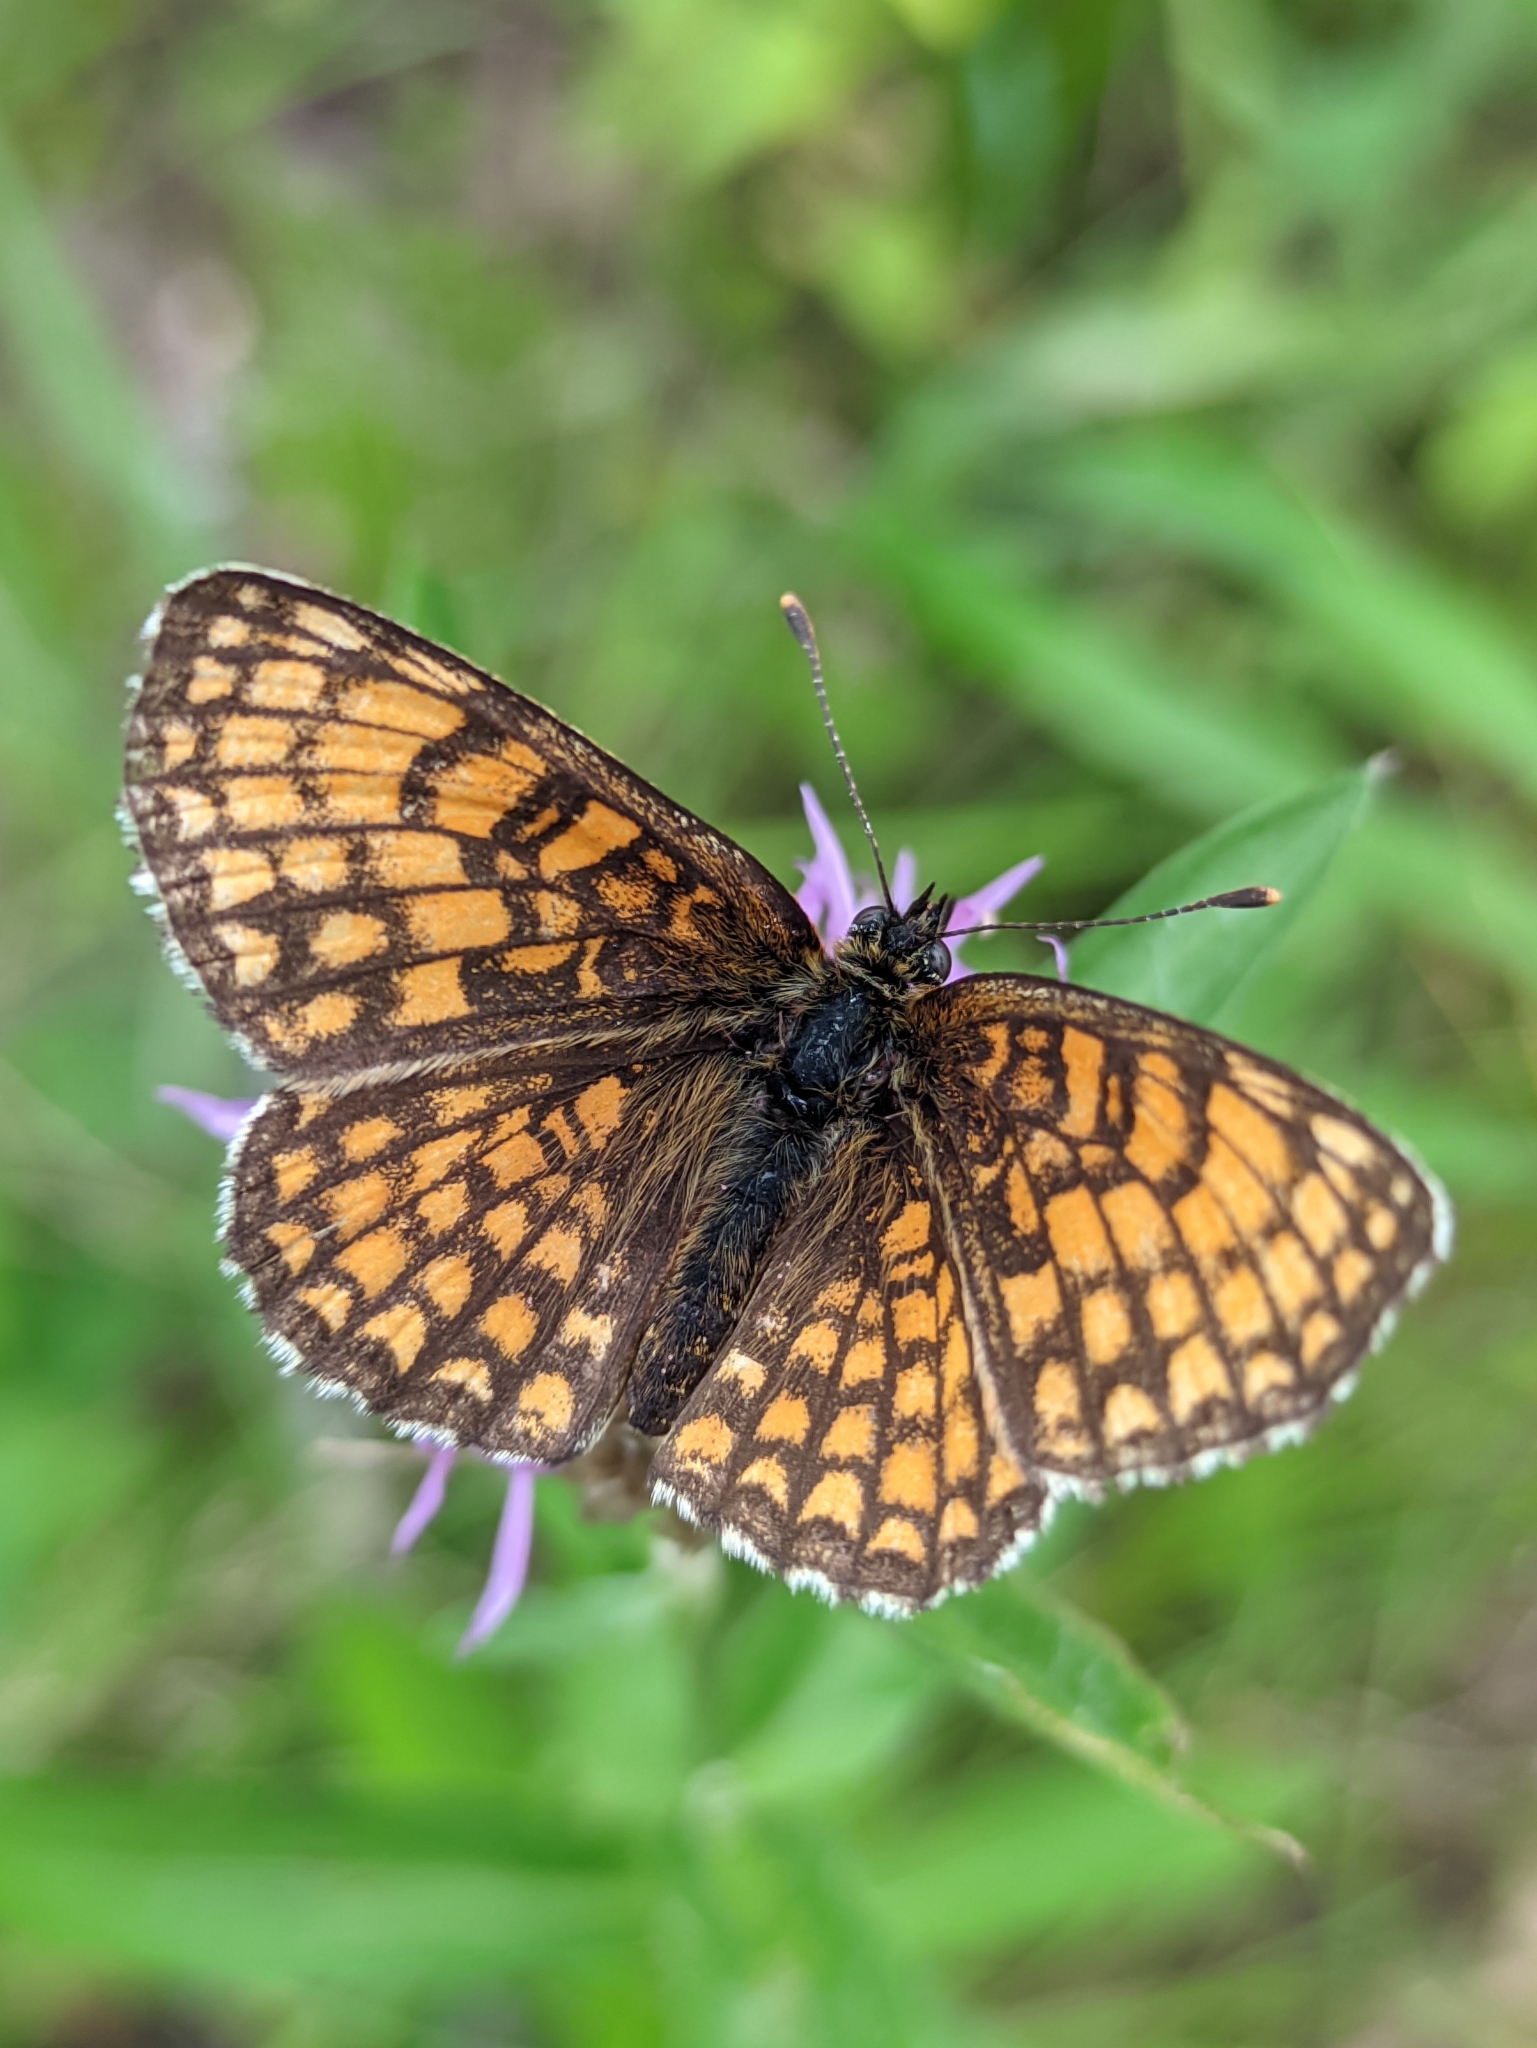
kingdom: Animalia
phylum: Arthropoda
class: Insecta
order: Lepidoptera
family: Nymphalidae
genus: Melitaea
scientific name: Melitaea athalia
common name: Heath fritillary
